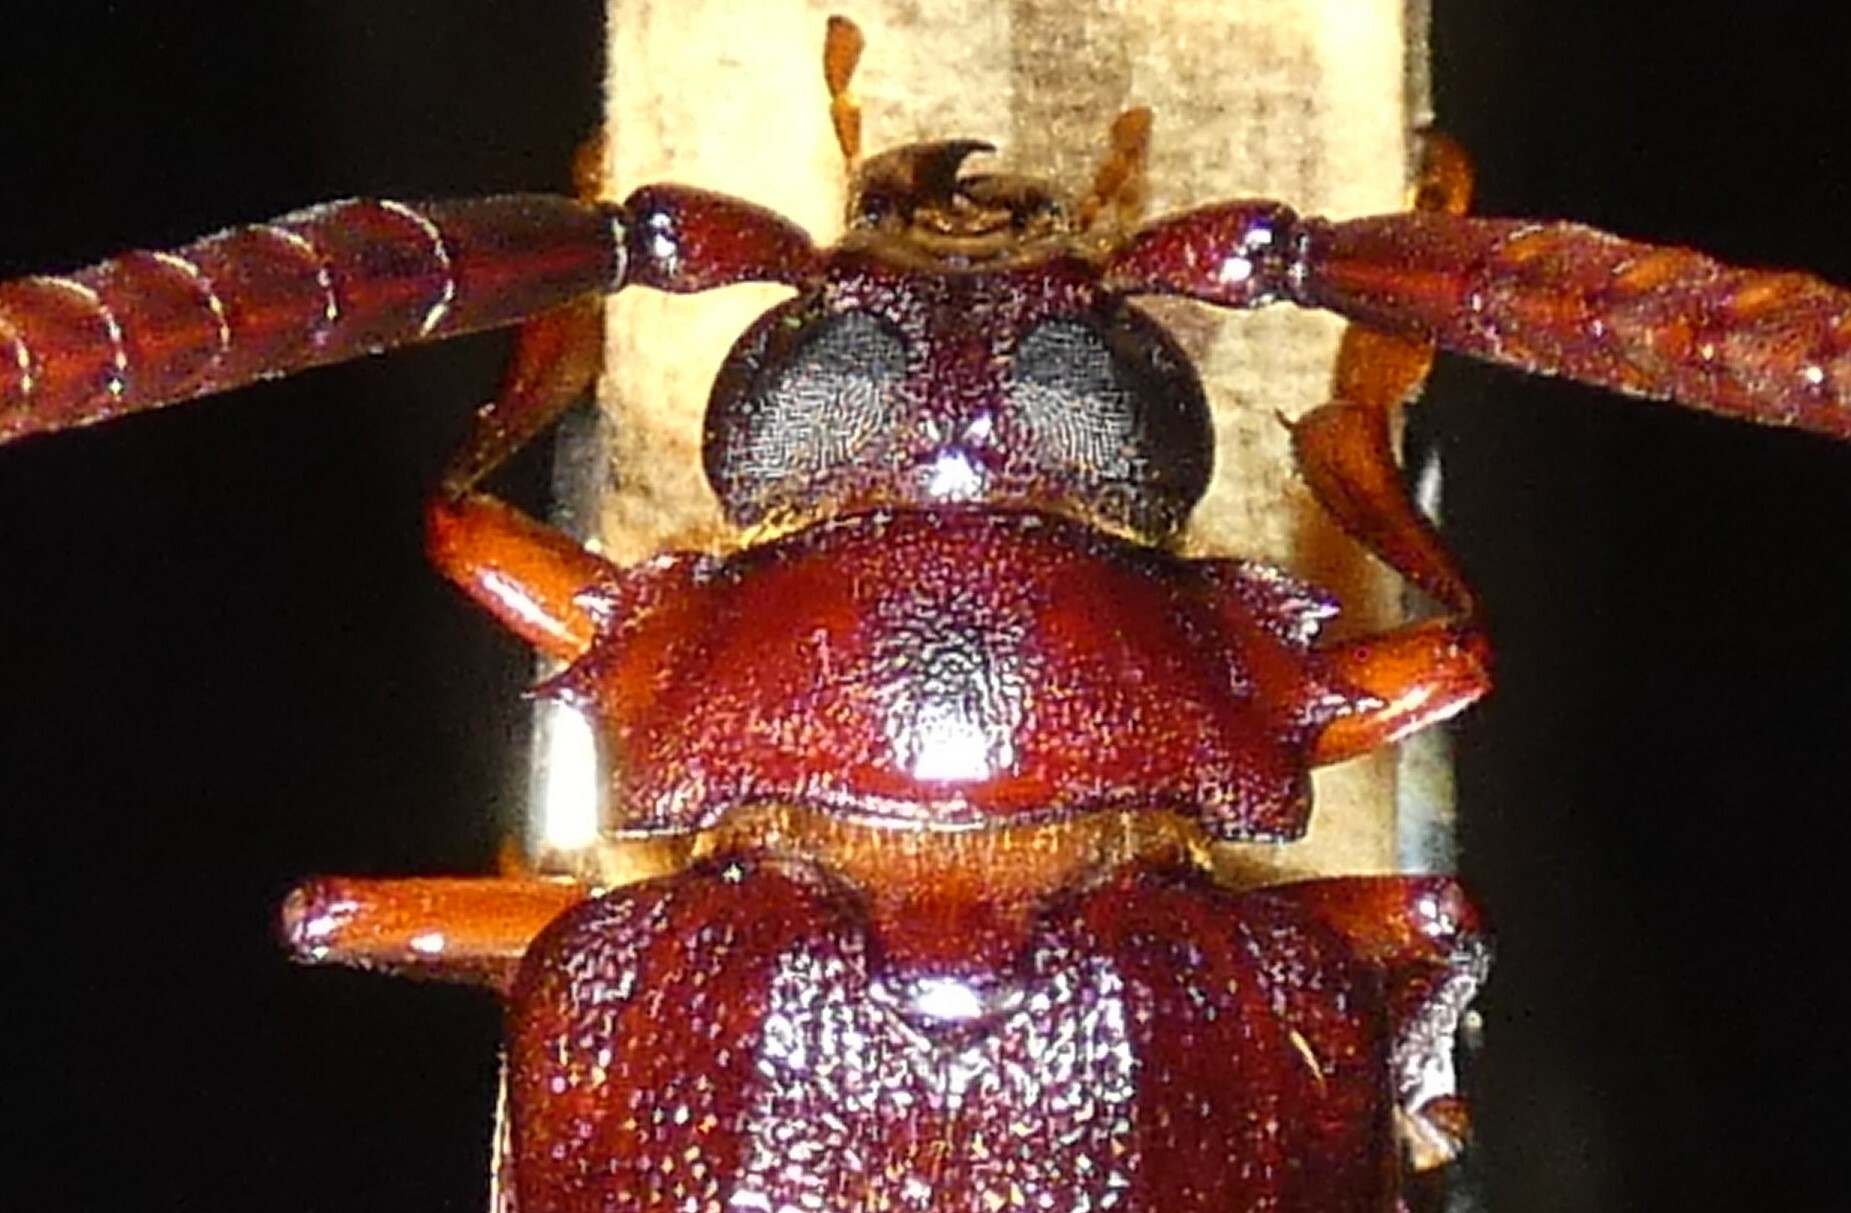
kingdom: Animalia
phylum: Arthropoda
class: Insecta
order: Coleoptera
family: Cerambycidae
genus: Prionus
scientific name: Prionus imbricornis
